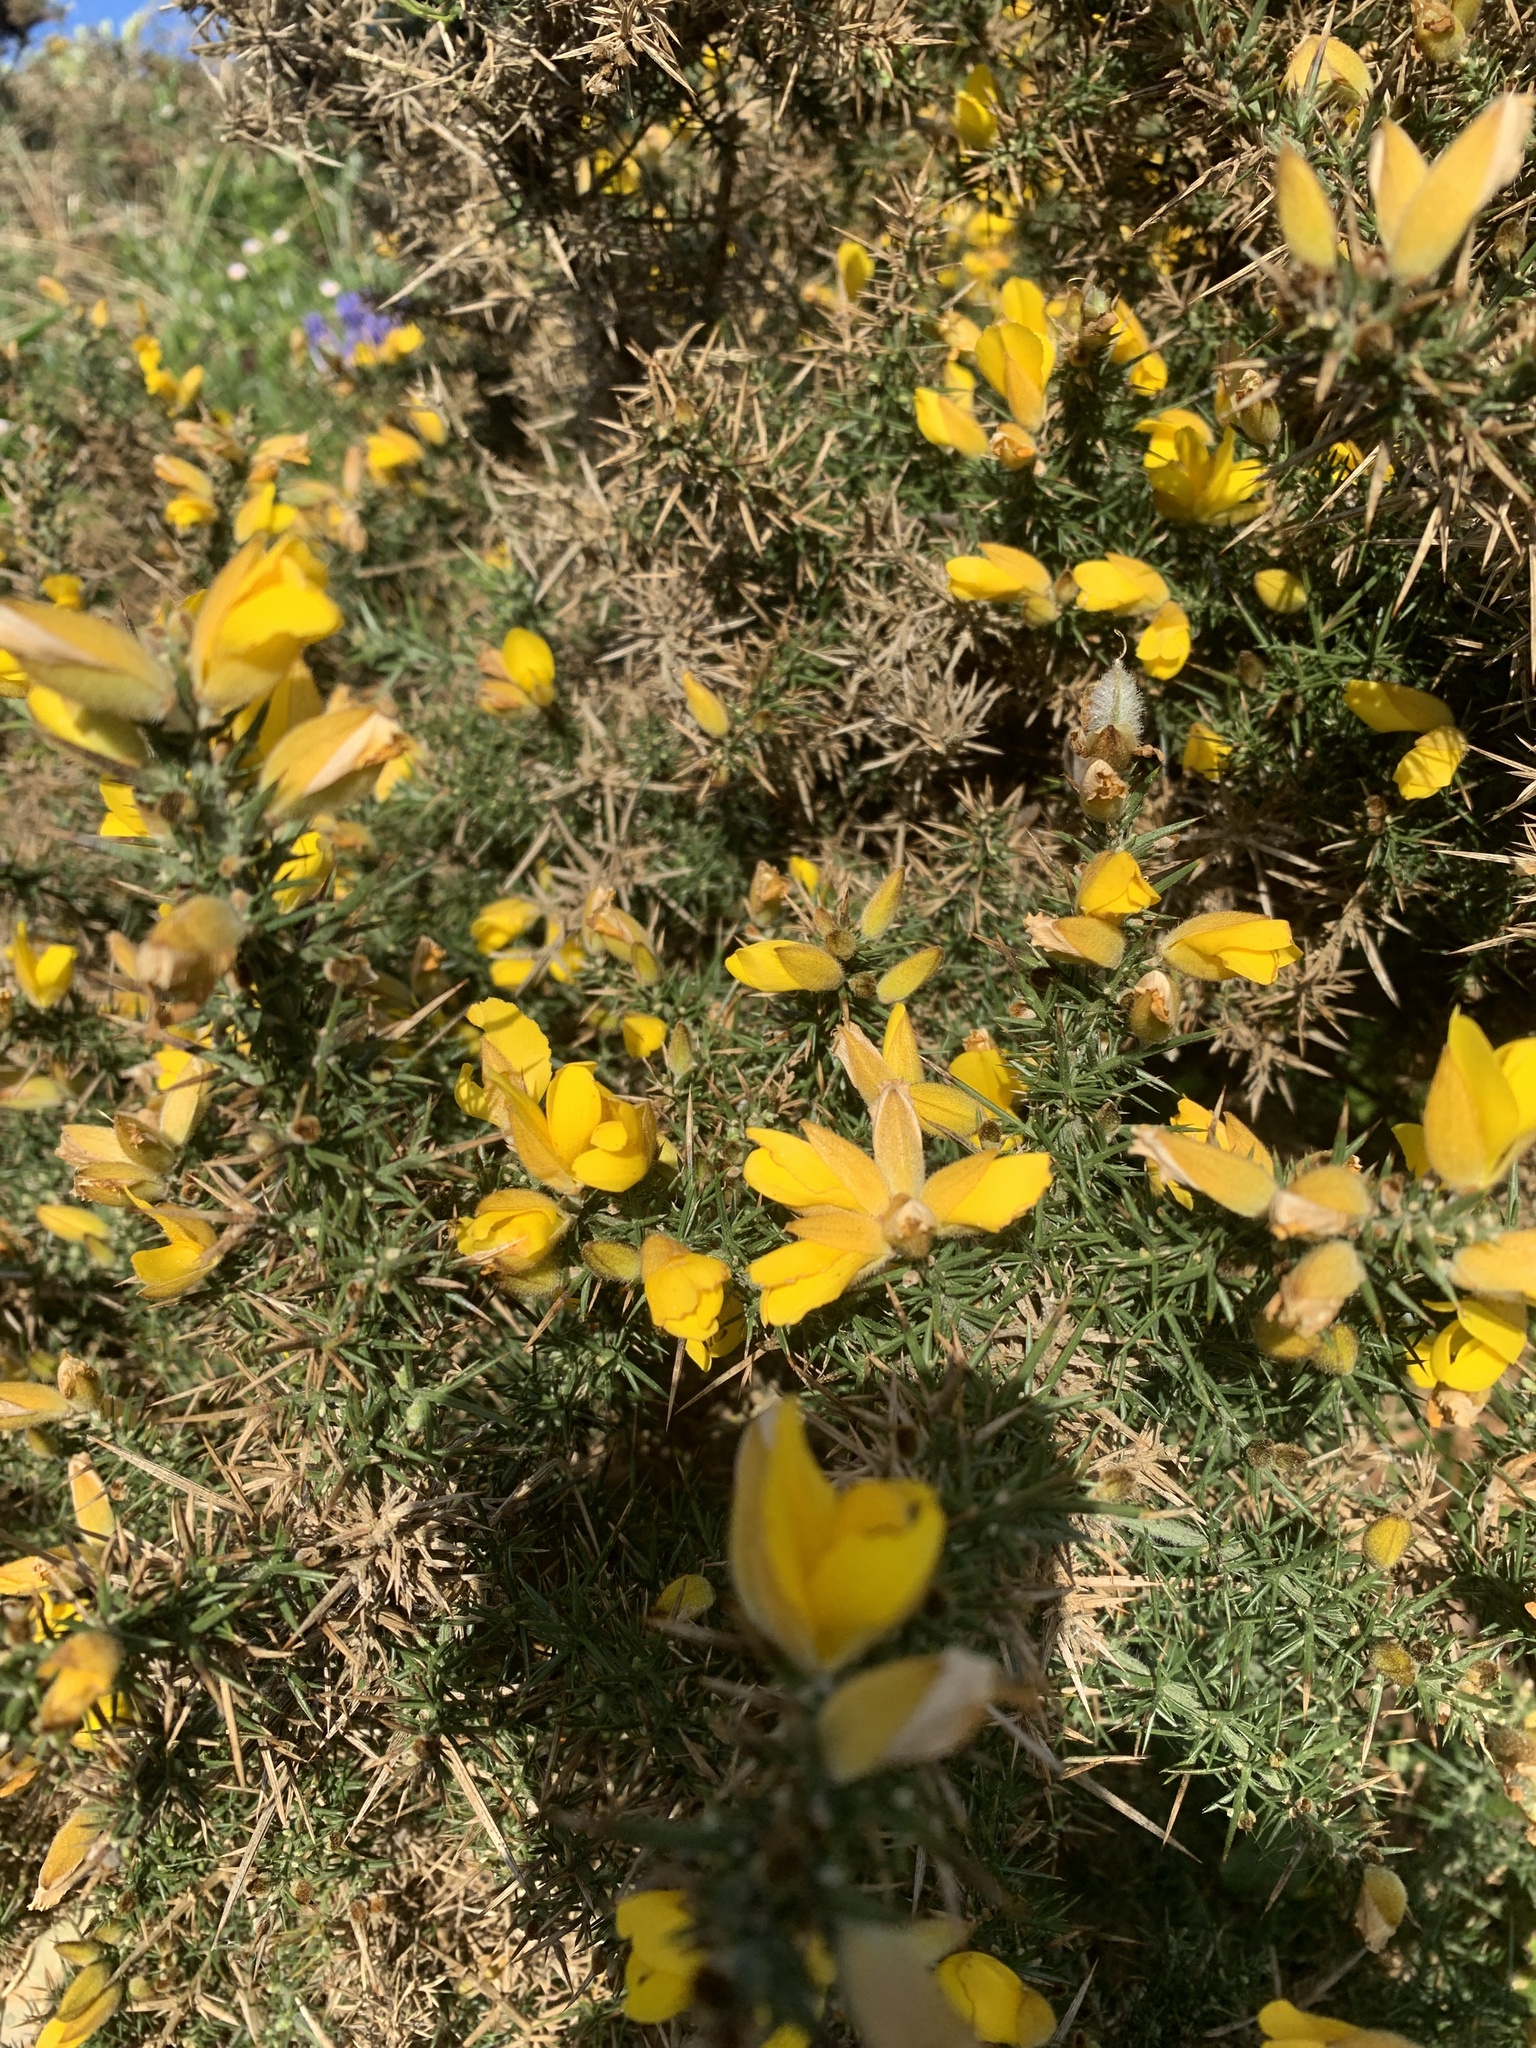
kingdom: Plantae
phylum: Tracheophyta
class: Magnoliopsida
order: Fabales
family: Fabaceae
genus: Ulex
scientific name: Ulex europaeus
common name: Common gorse
